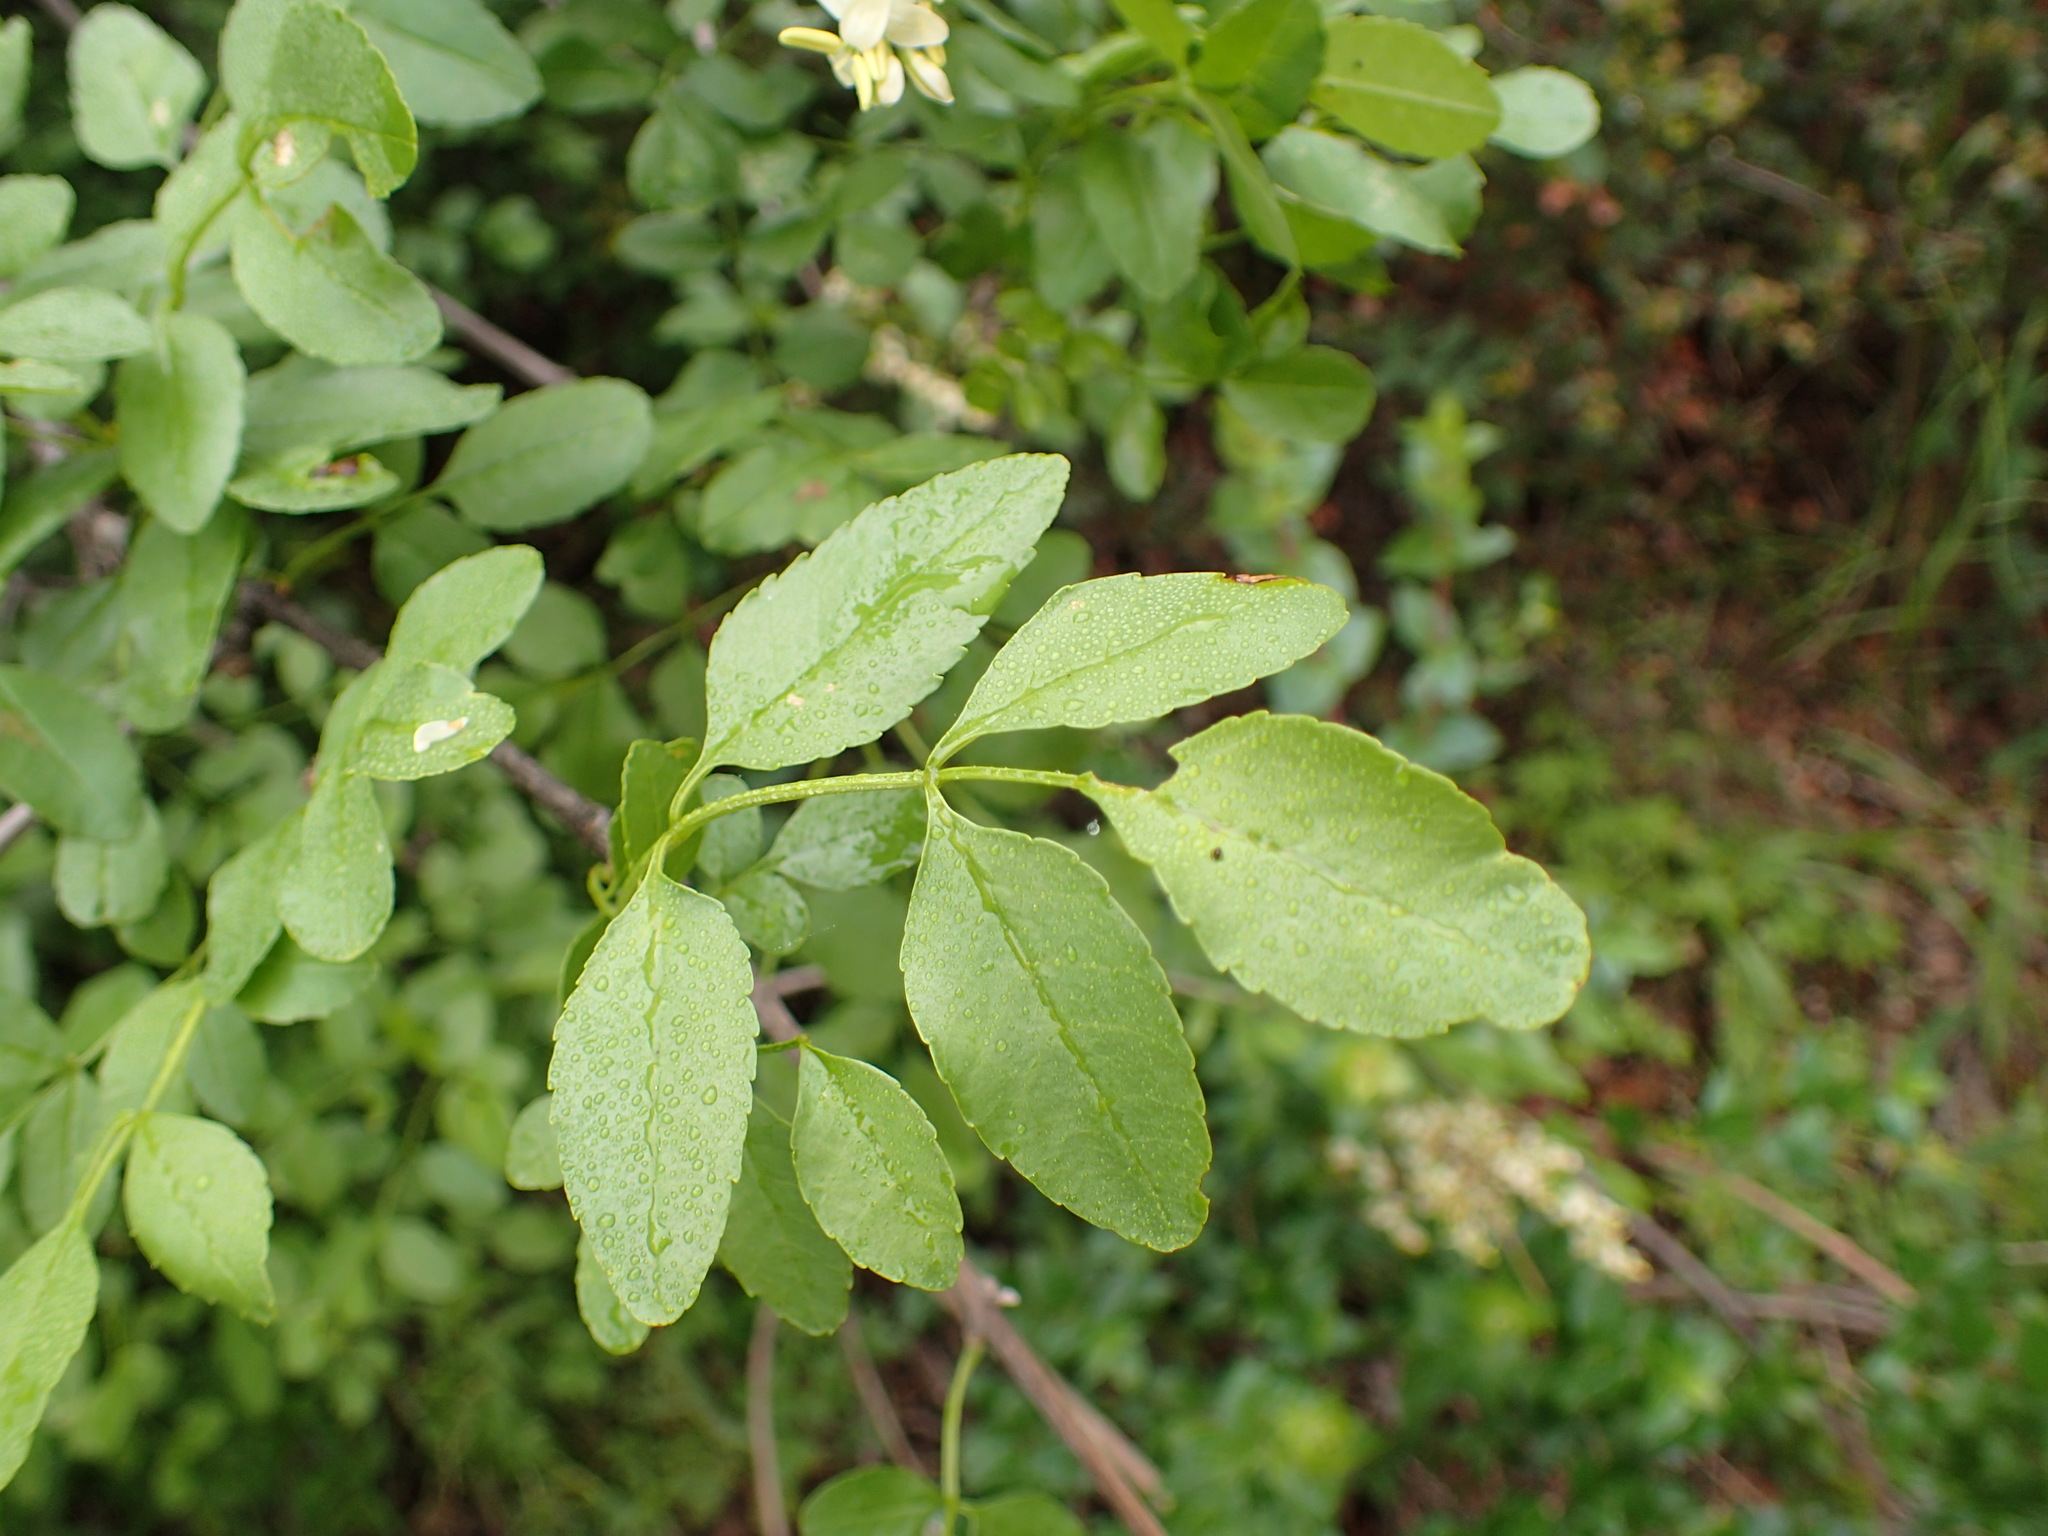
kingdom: Plantae
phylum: Tracheophyta
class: Magnoliopsida
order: Lamiales
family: Oleaceae
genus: Fraxinus
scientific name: Fraxinus dipetala
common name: California ash
